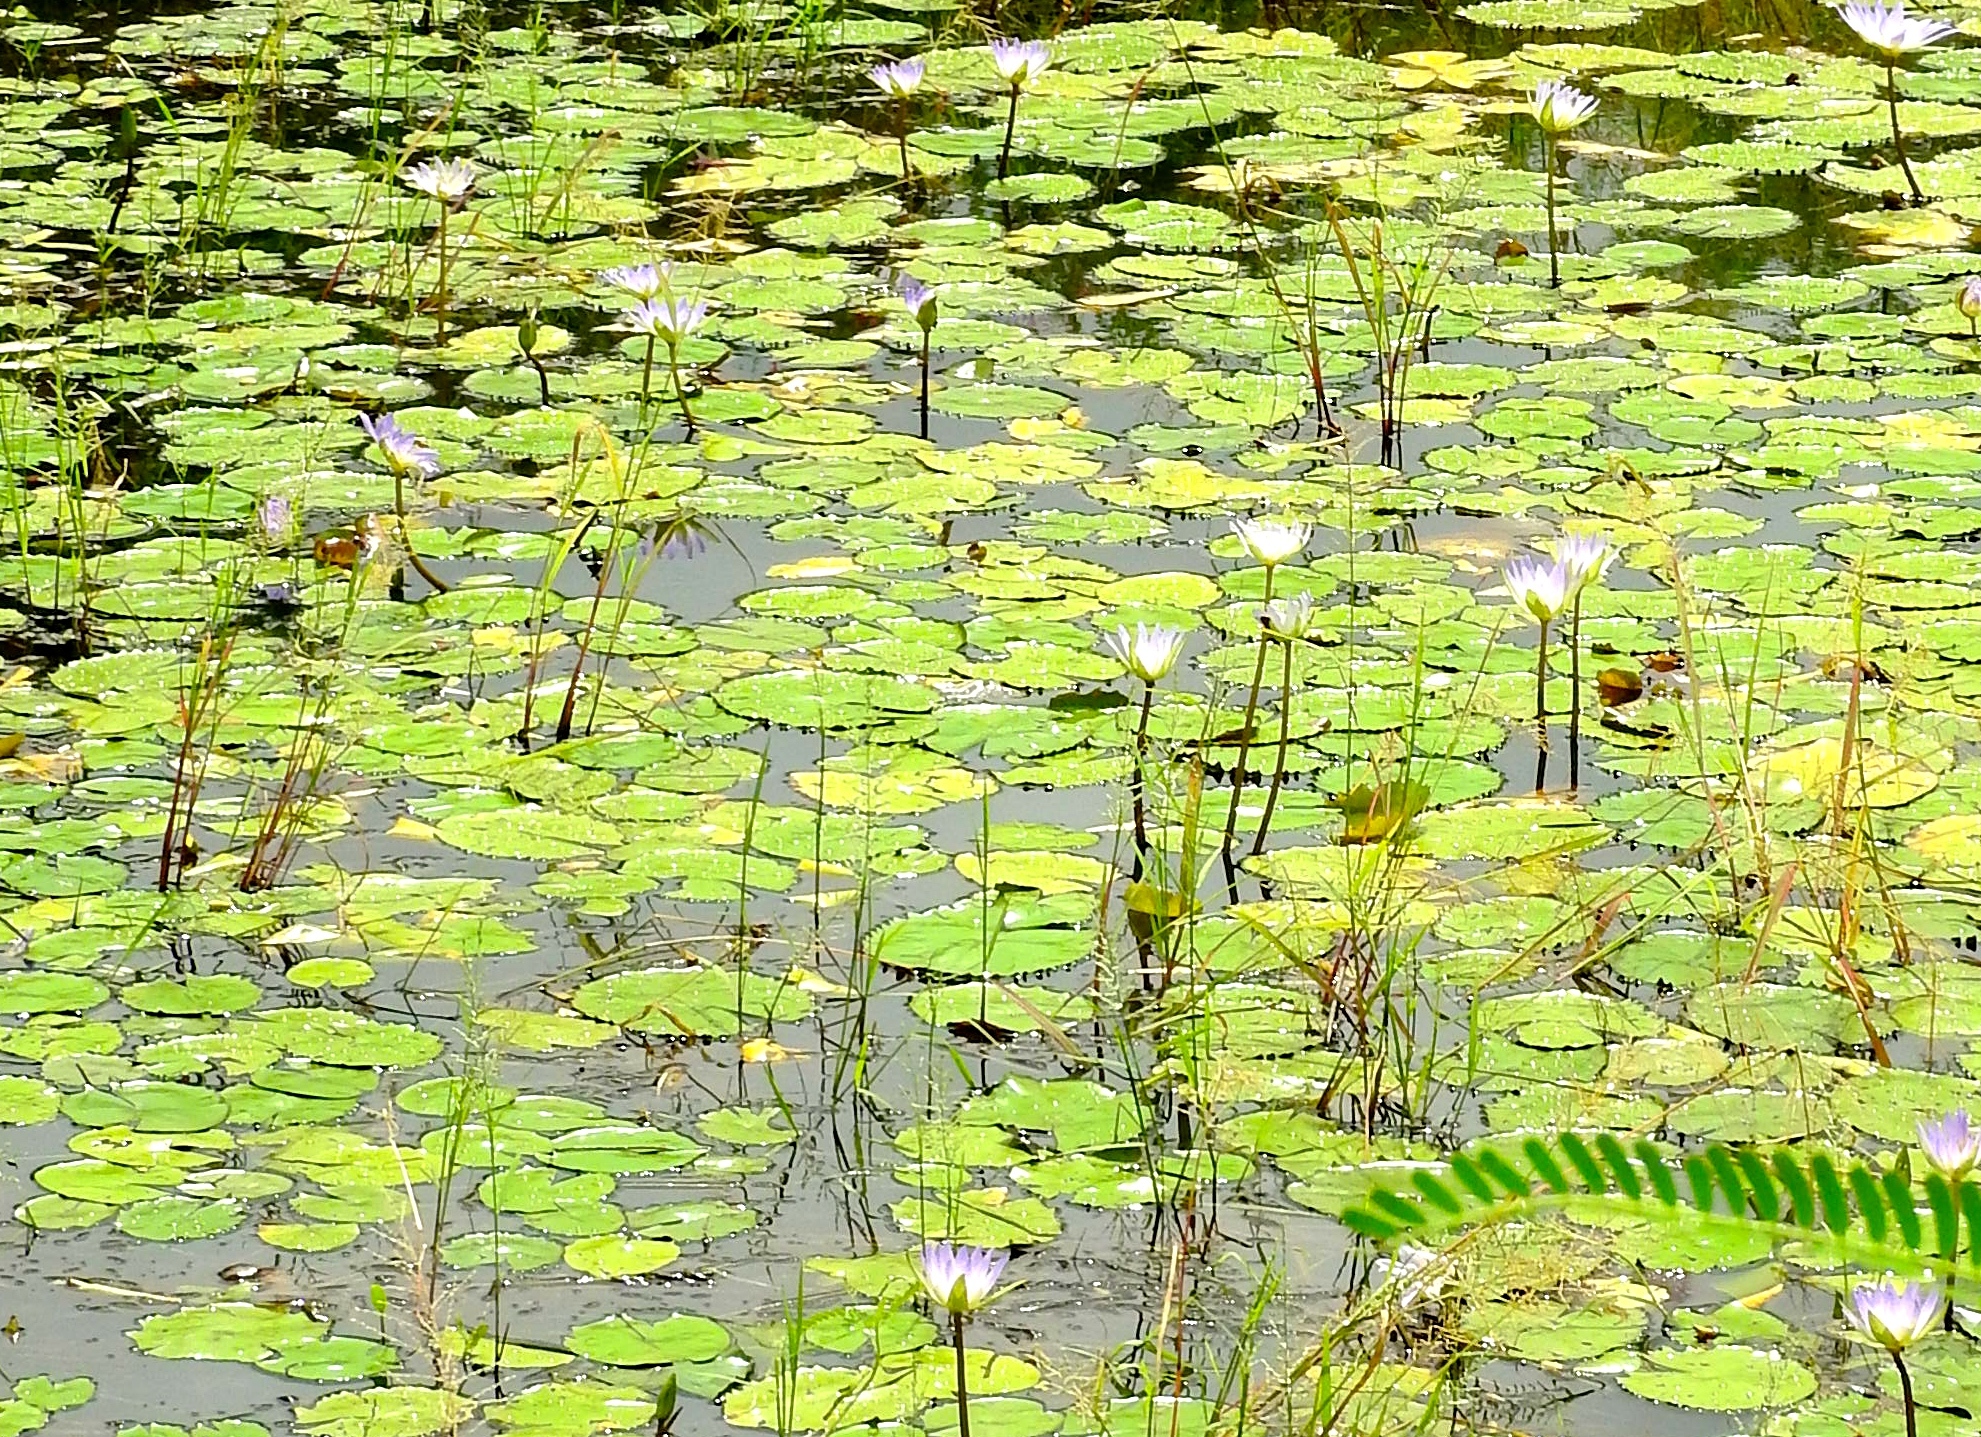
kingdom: Plantae
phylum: Tracheophyta
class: Magnoliopsida
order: Nymphaeales
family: Nymphaeaceae
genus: Nymphaea
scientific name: Nymphaea elegans
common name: Blue water-lily
